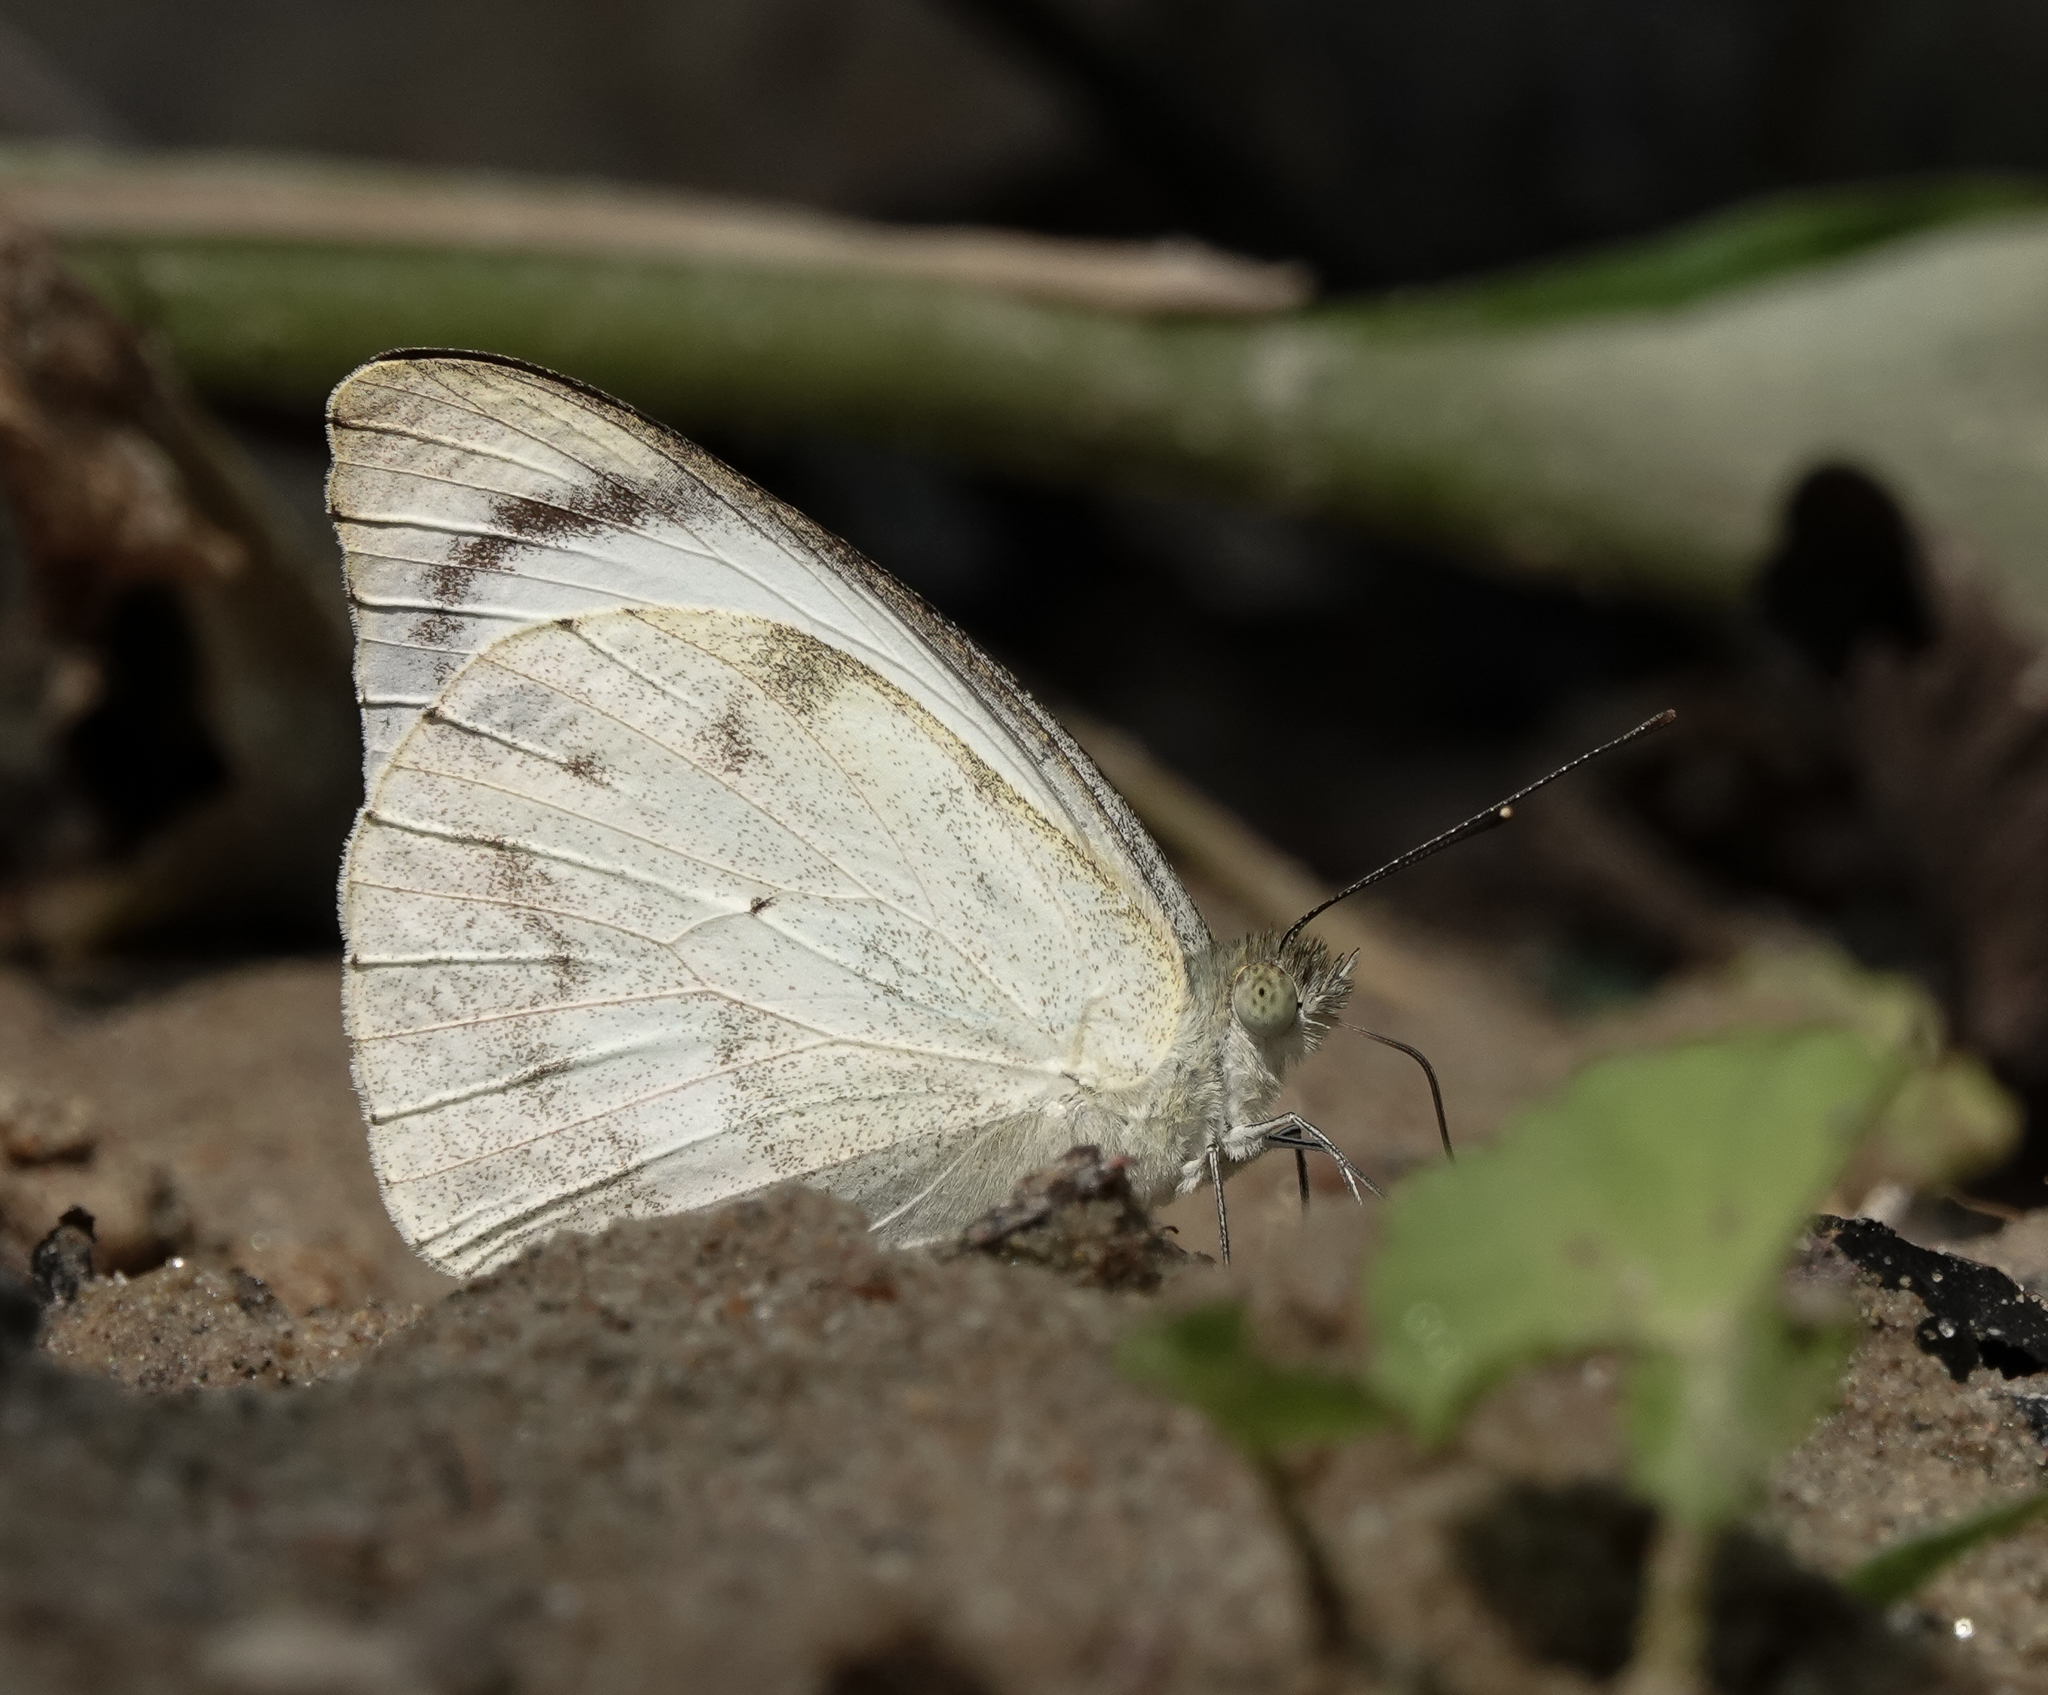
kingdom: Animalia
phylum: Arthropoda
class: Insecta
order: Lepidoptera
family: Pieridae
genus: Appias
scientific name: Appias indra
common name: Plain puffin
